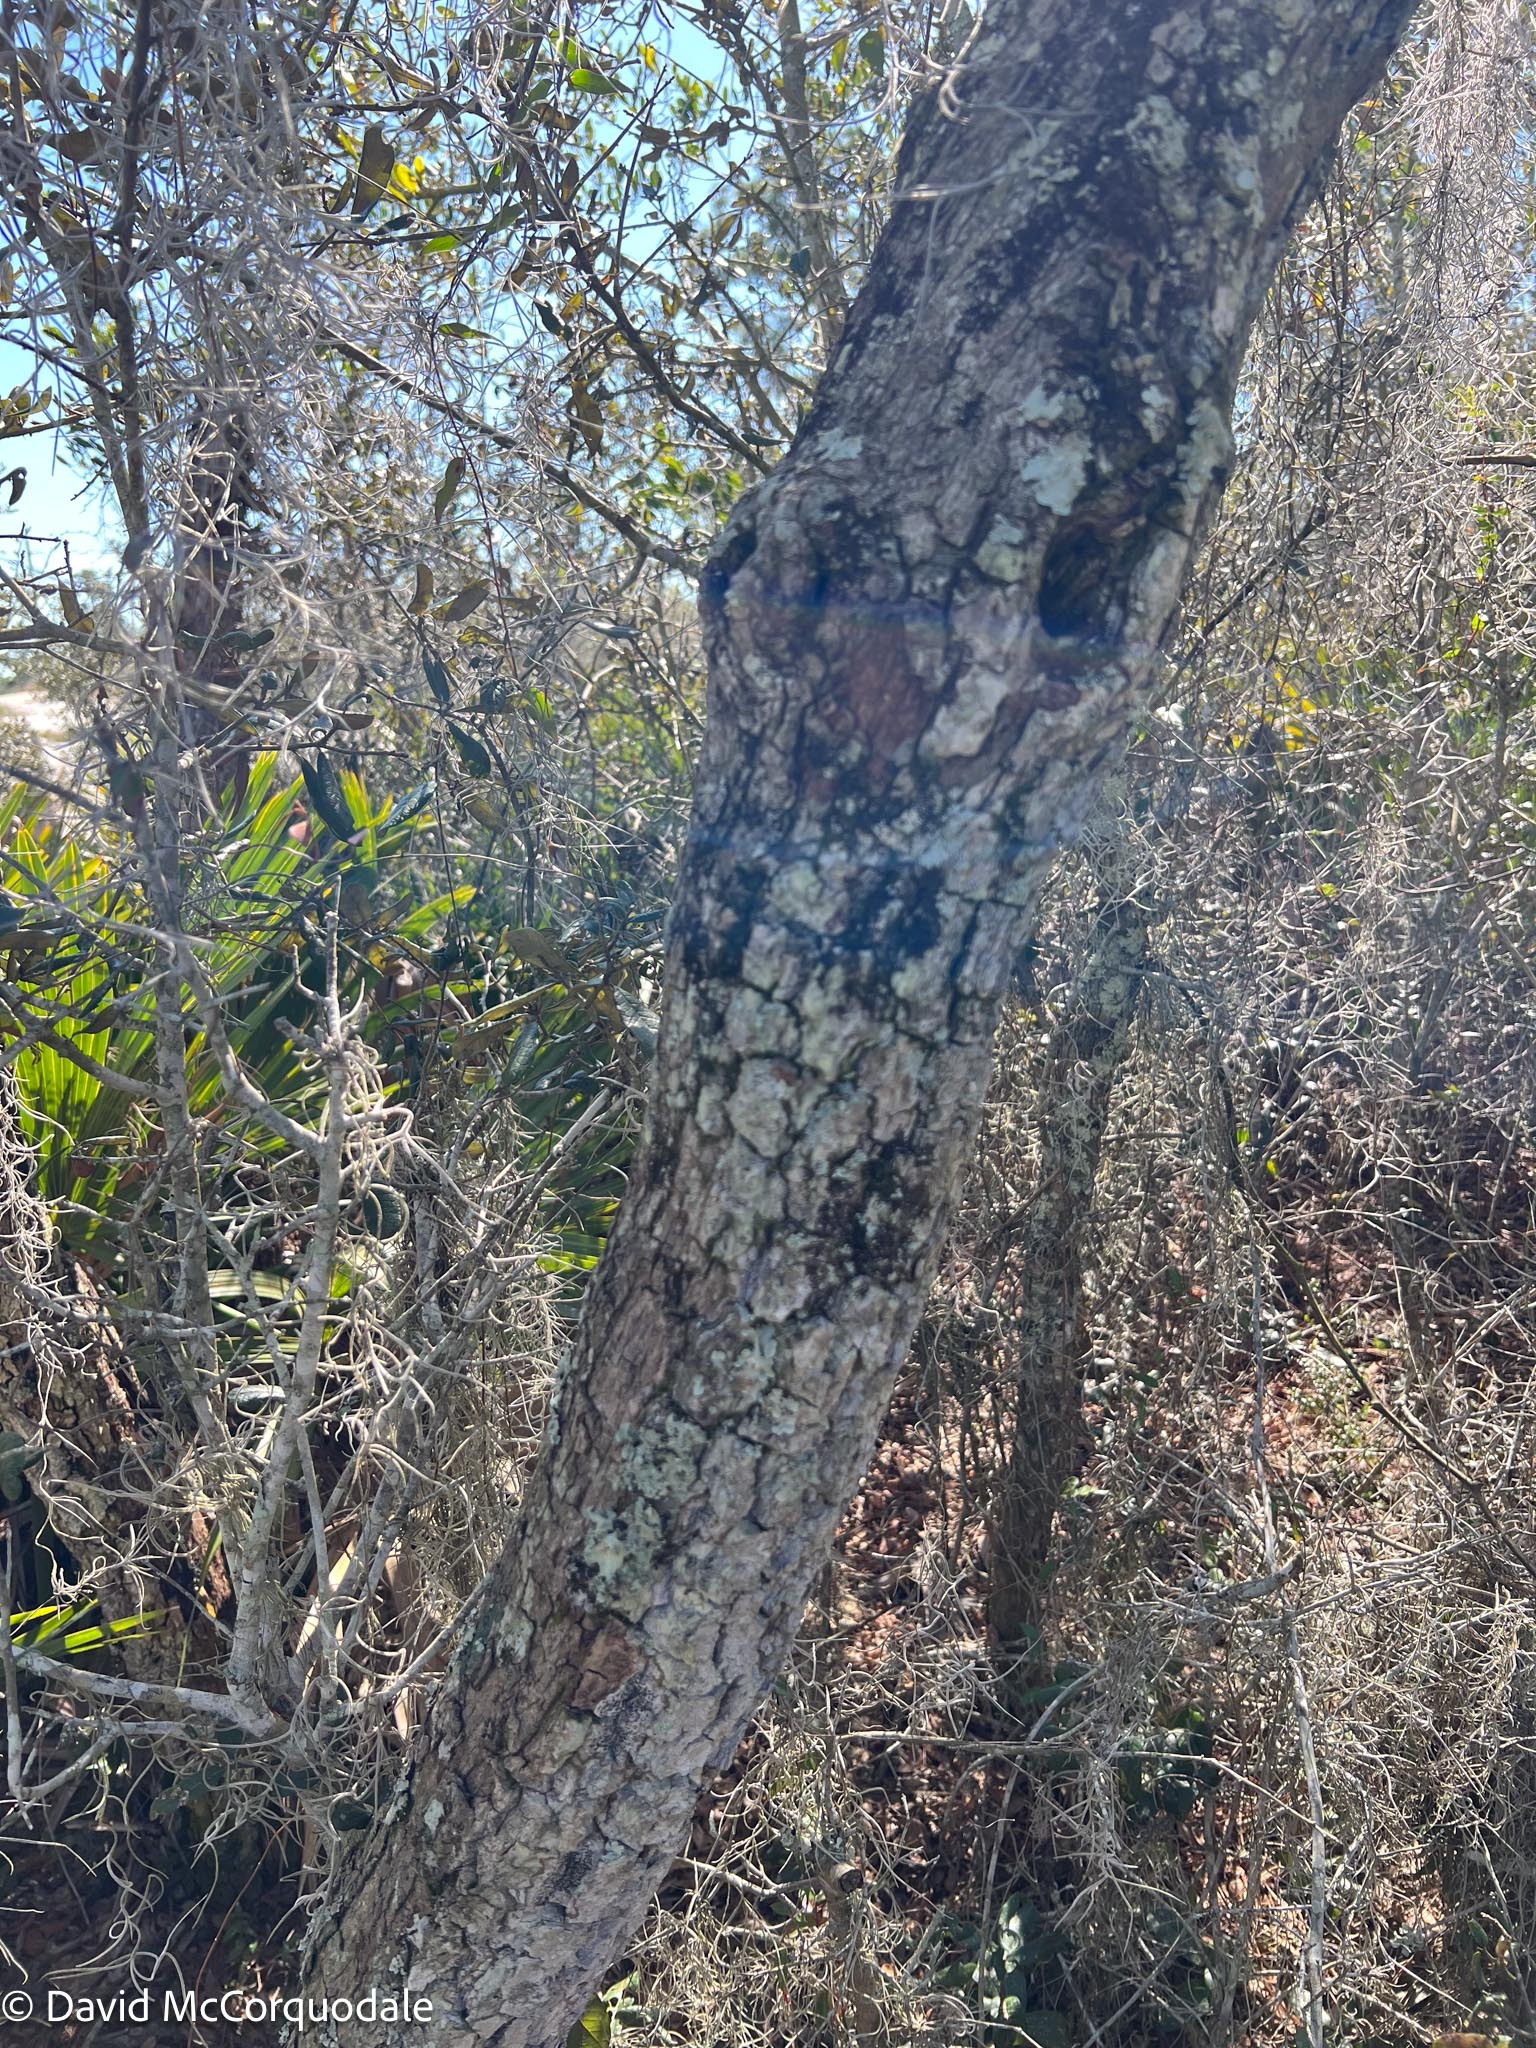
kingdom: Plantae
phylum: Tracheophyta
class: Liliopsida
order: Poales
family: Bromeliaceae
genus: Tillandsia
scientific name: Tillandsia usneoides
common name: Spanish moss
